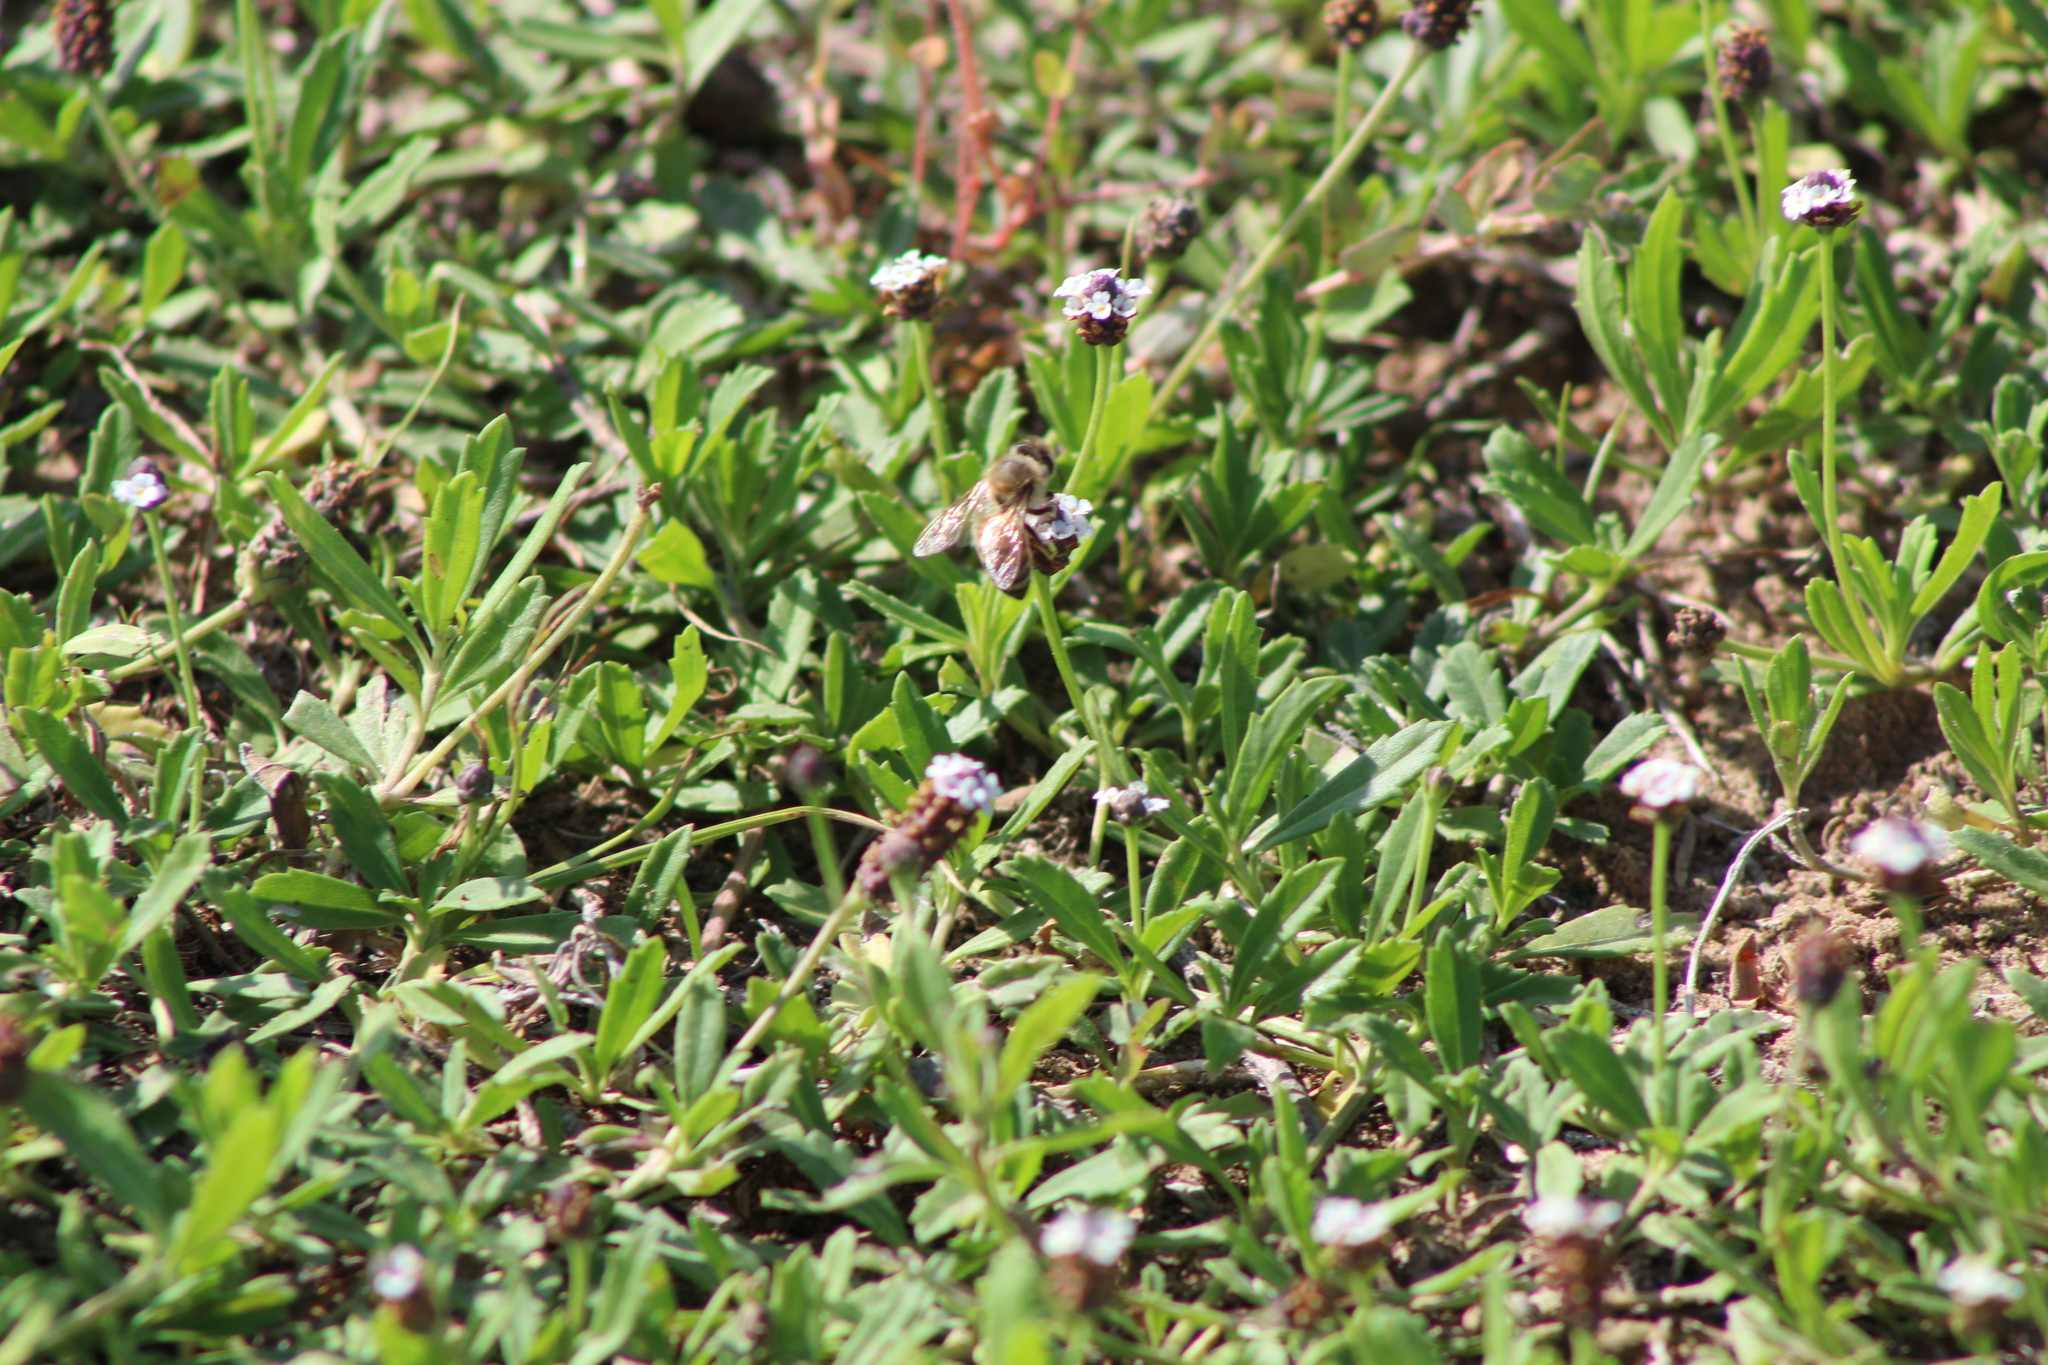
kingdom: Animalia
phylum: Arthropoda
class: Insecta
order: Hymenoptera
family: Apidae
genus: Apis
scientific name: Apis mellifera
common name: Honey bee
